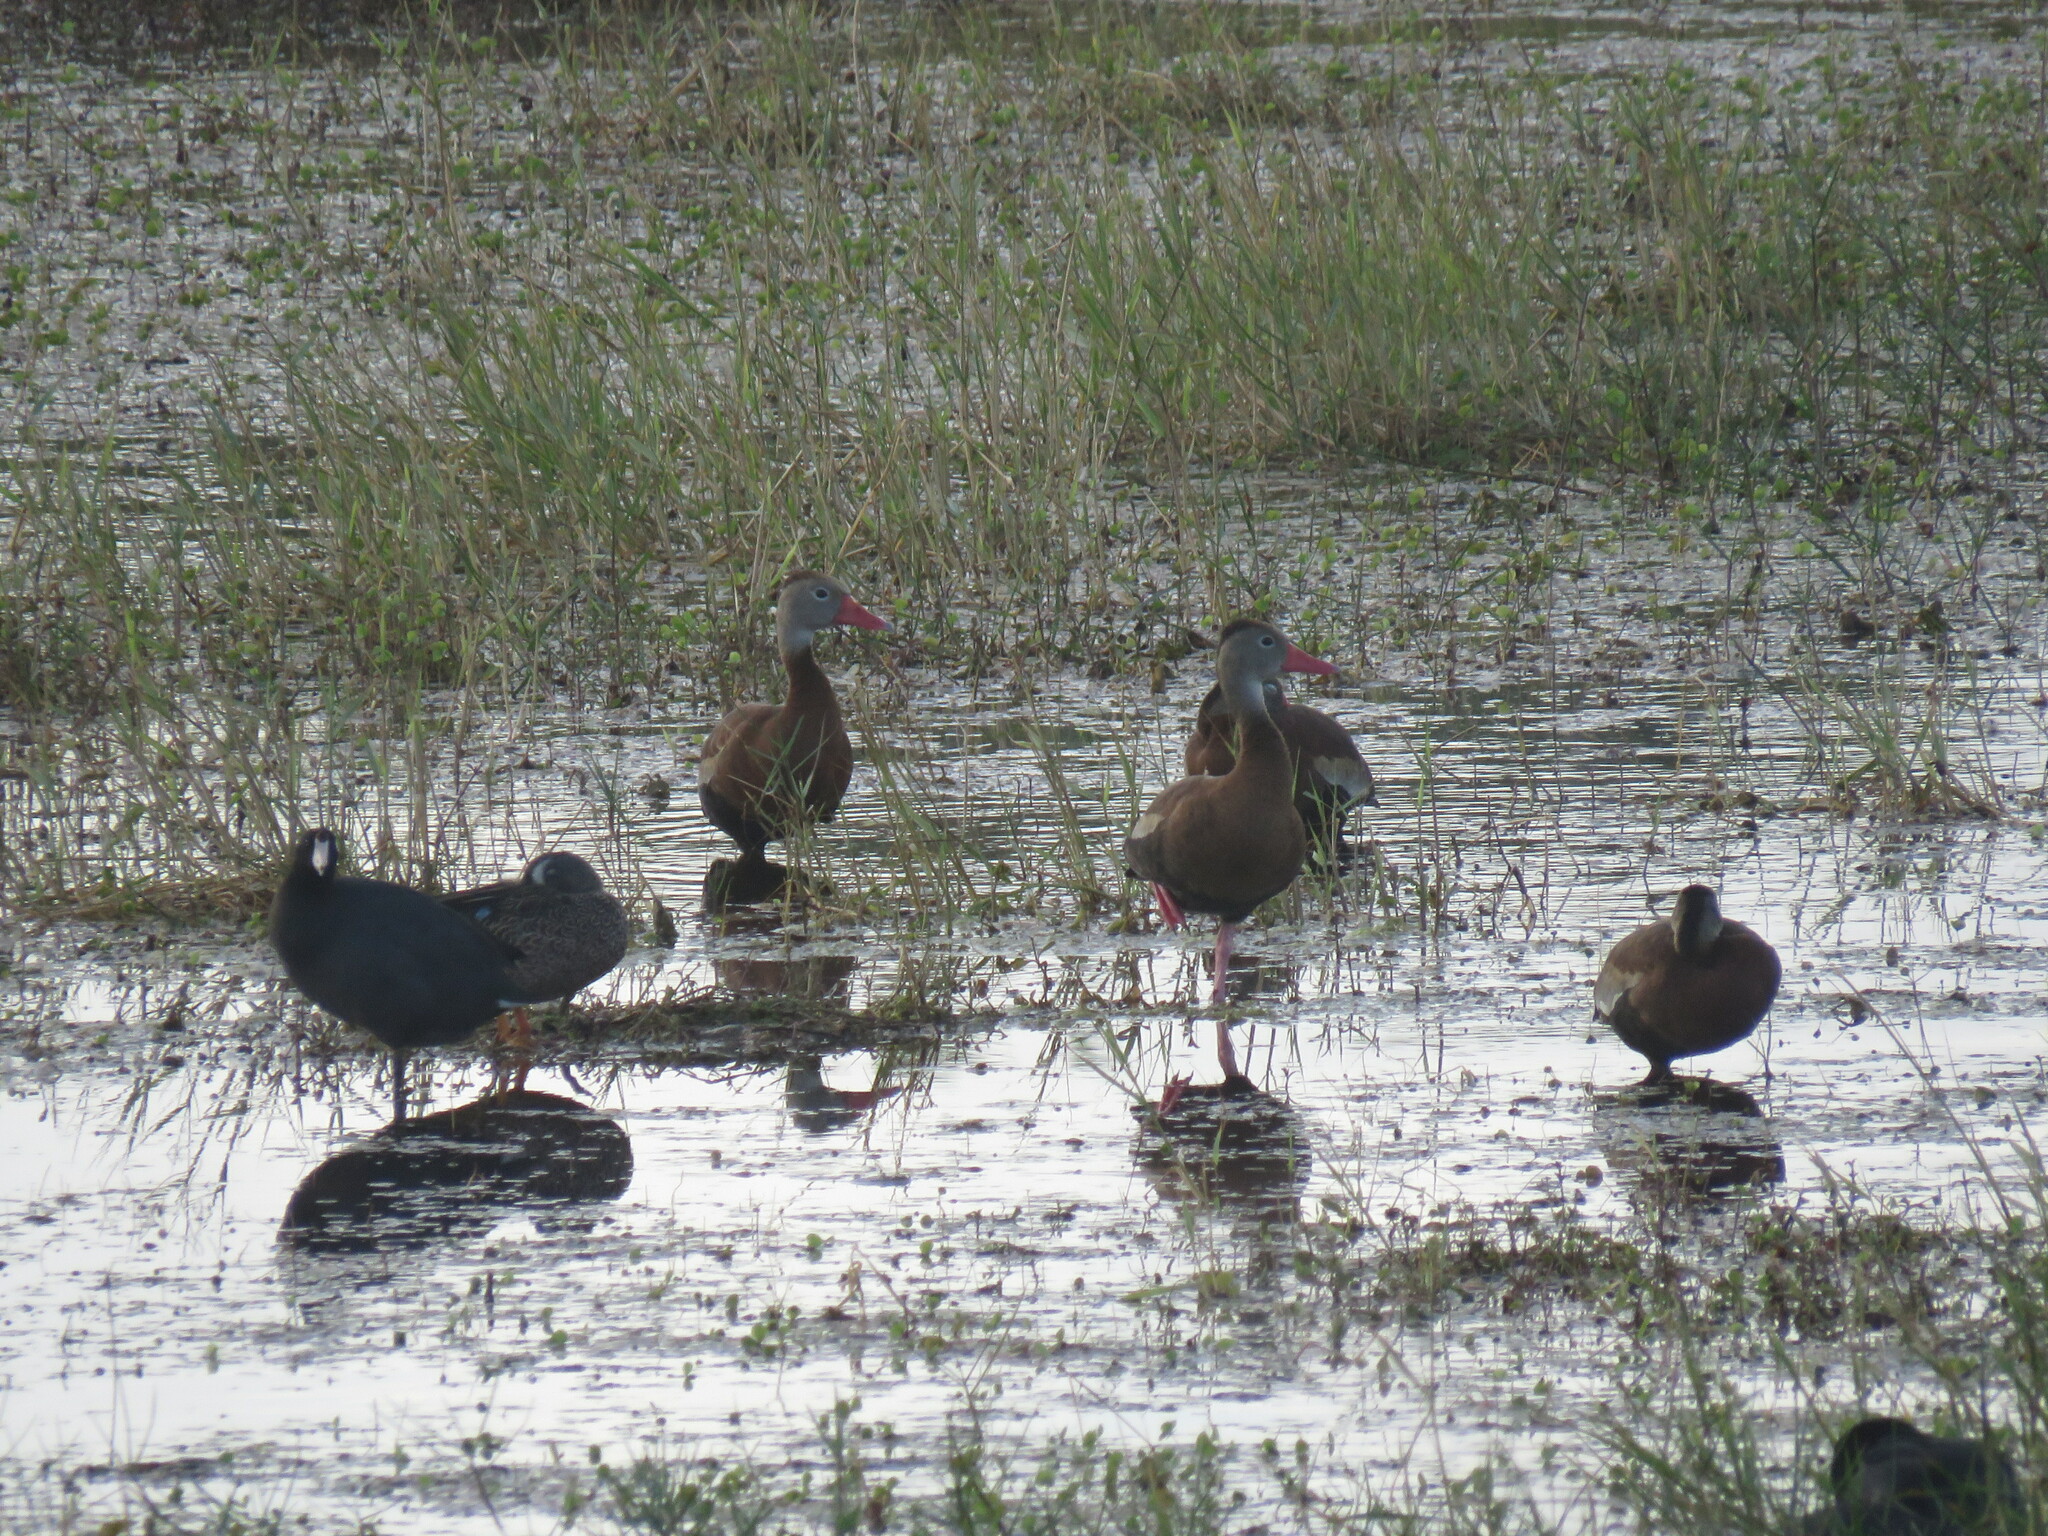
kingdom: Animalia
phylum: Chordata
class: Aves
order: Anseriformes
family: Anatidae
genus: Dendrocygna
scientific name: Dendrocygna autumnalis
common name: Black-bellied whistling duck
